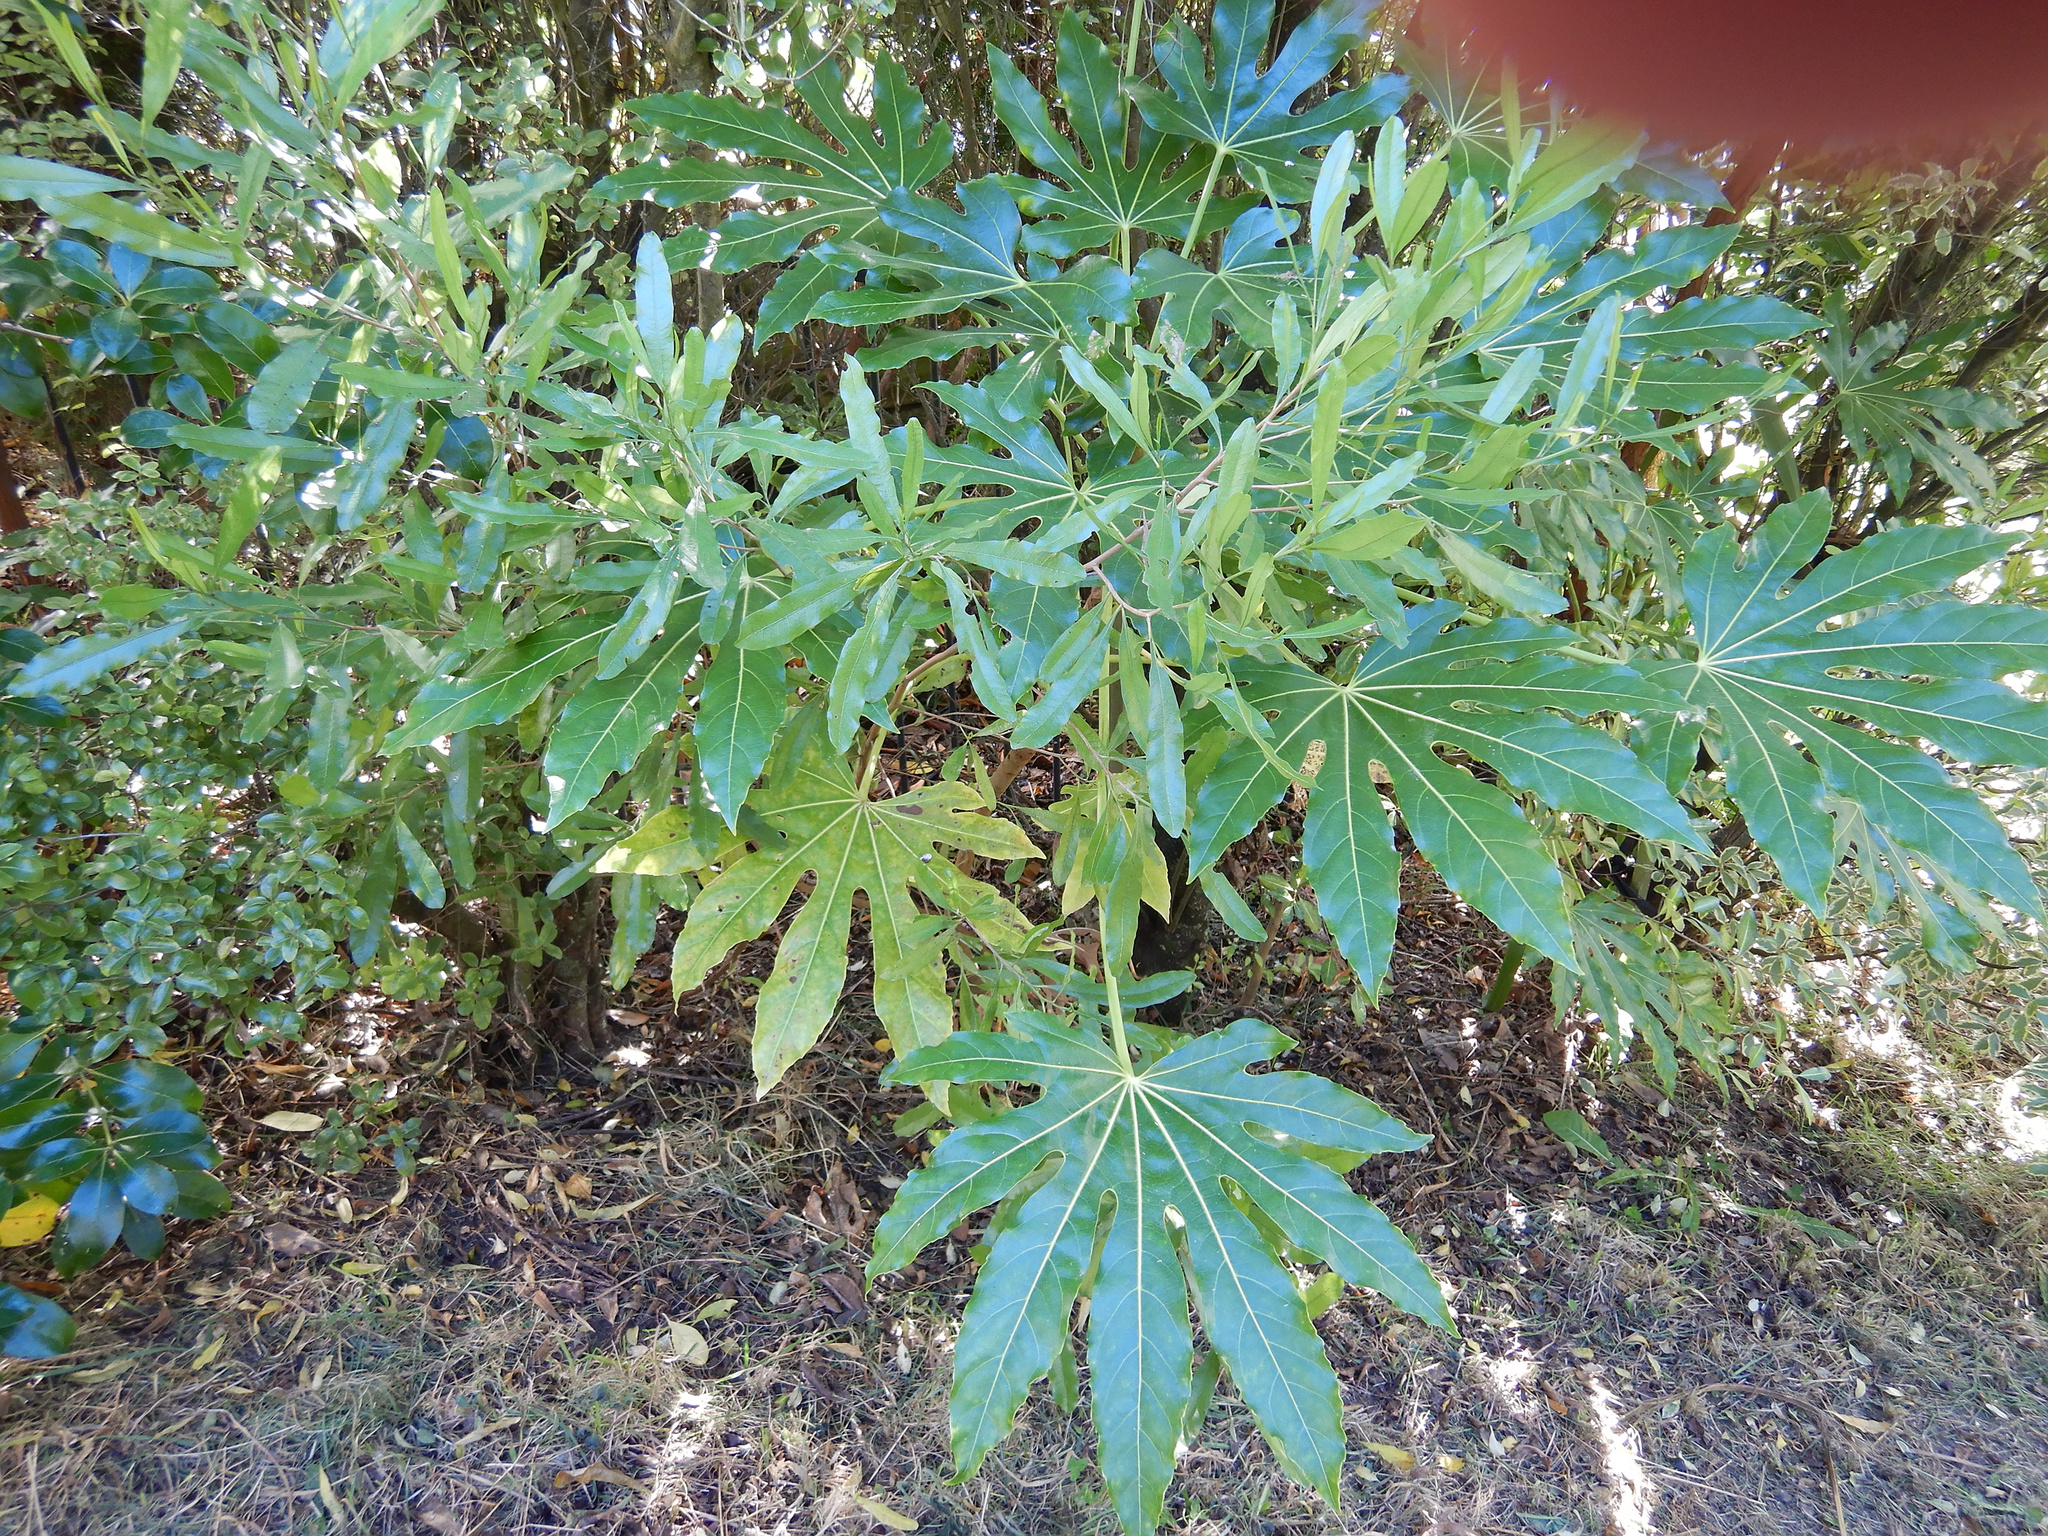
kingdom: Plantae
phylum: Tracheophyta
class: Magnoliopsida
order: Apiales
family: Araliaceae
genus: Fatsia
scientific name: Fatsia japonica
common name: Fatsia
